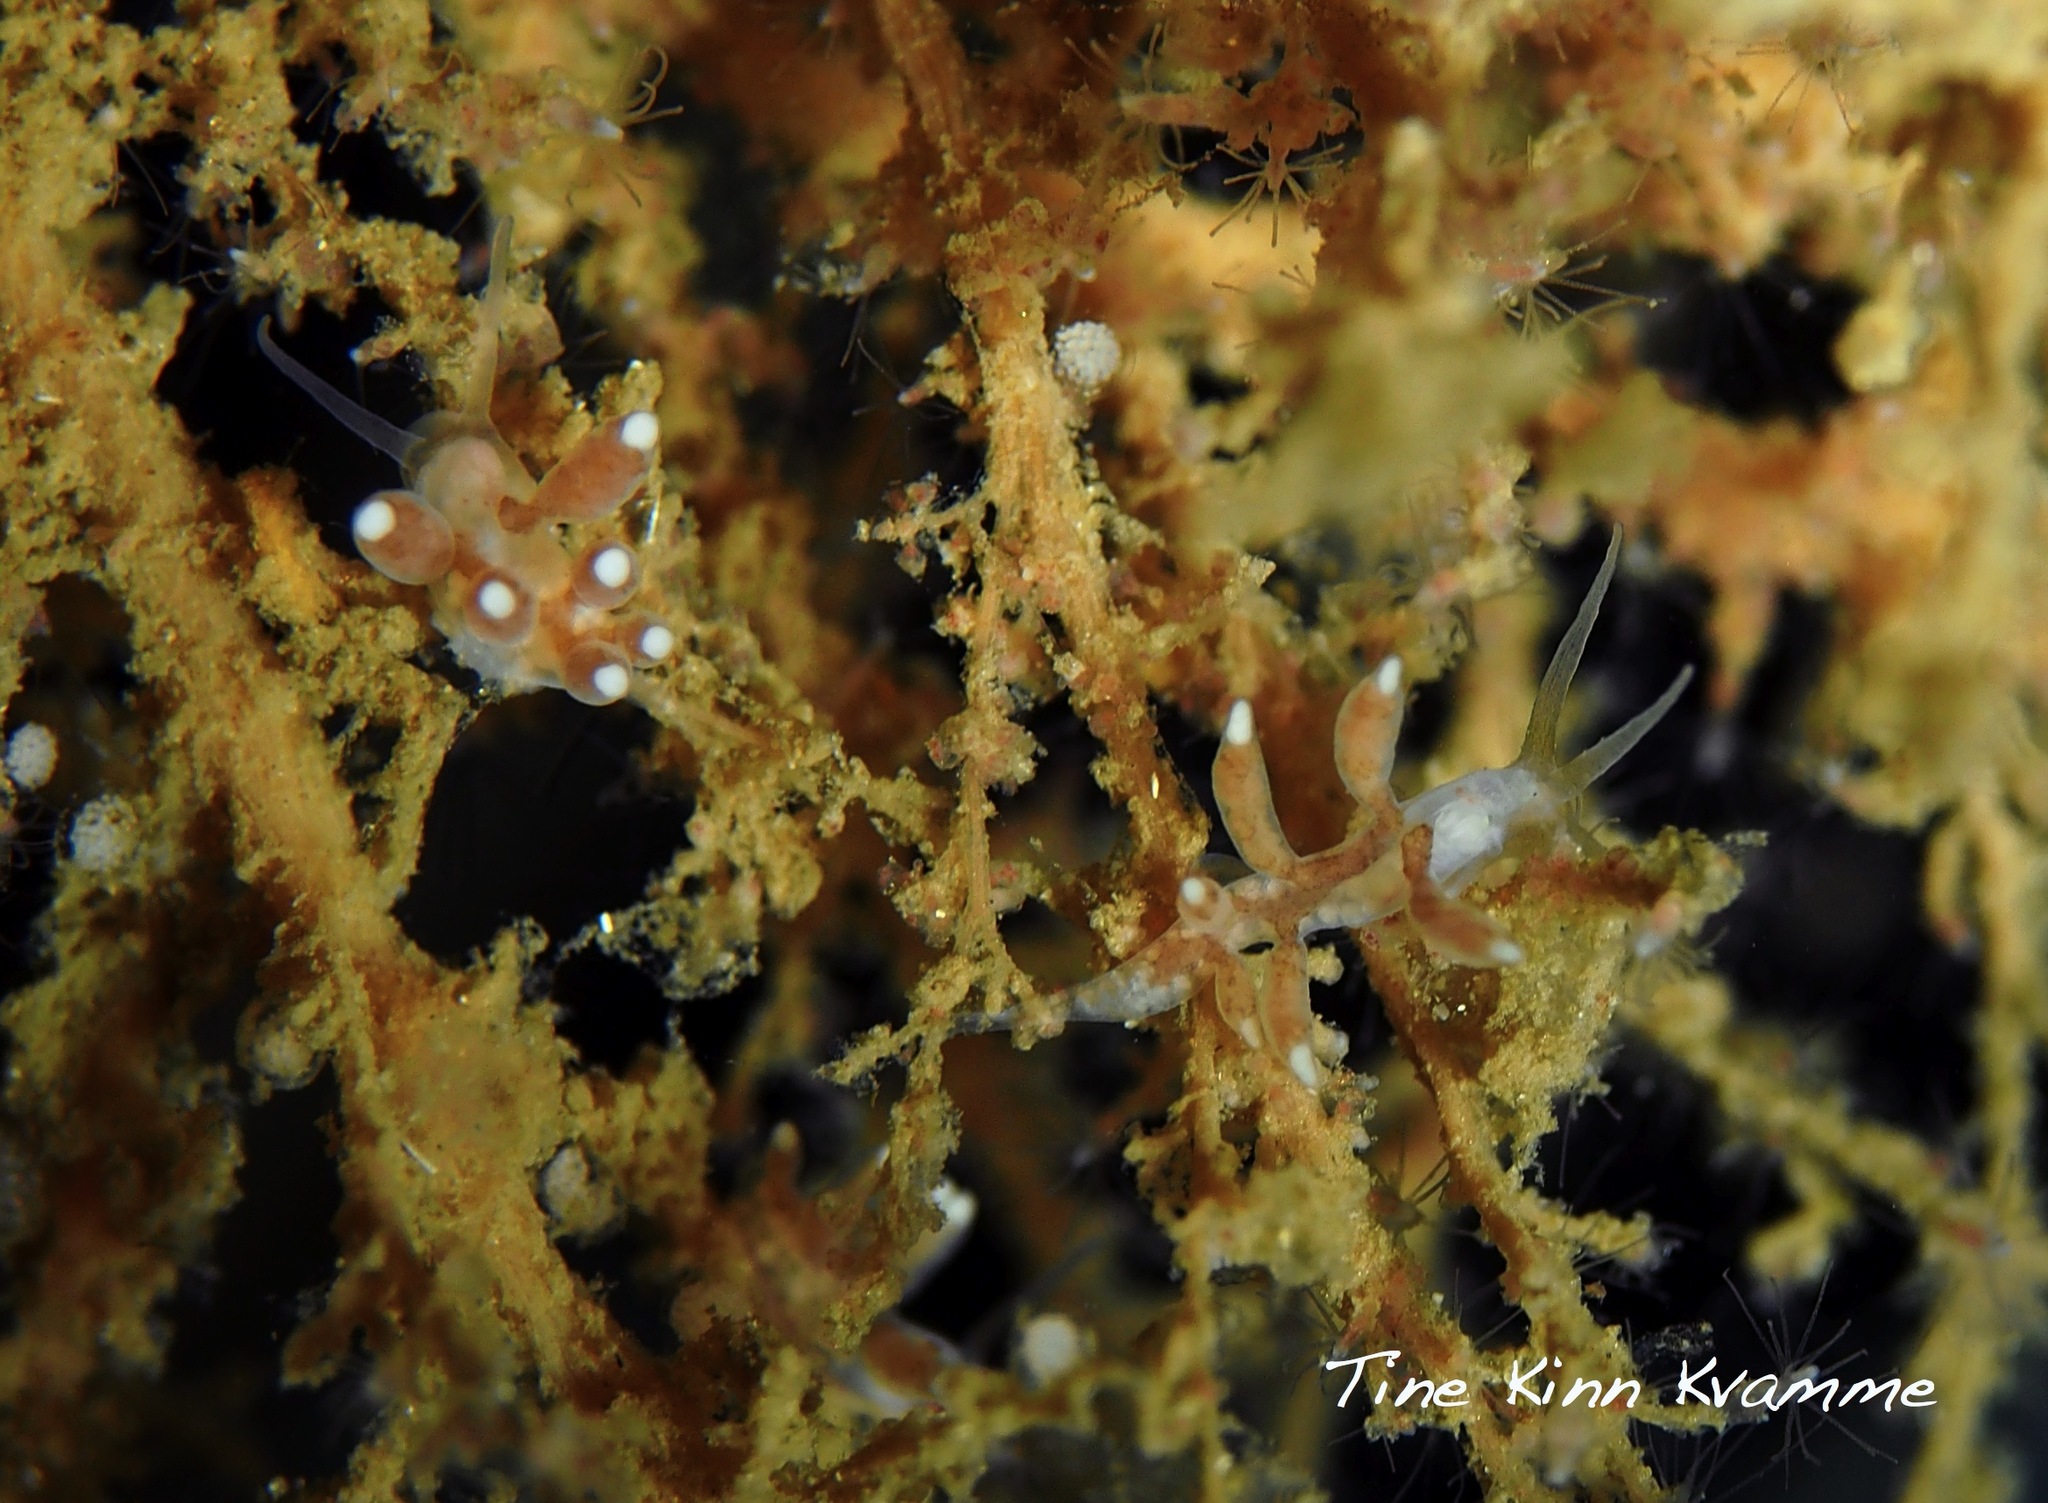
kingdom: Animalia
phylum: Mollusca
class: Gastropoda
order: Nudibranchia
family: Tergipedidae
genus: Tergipes
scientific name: Tergipes tergipes
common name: Johnston's balloon eolis
